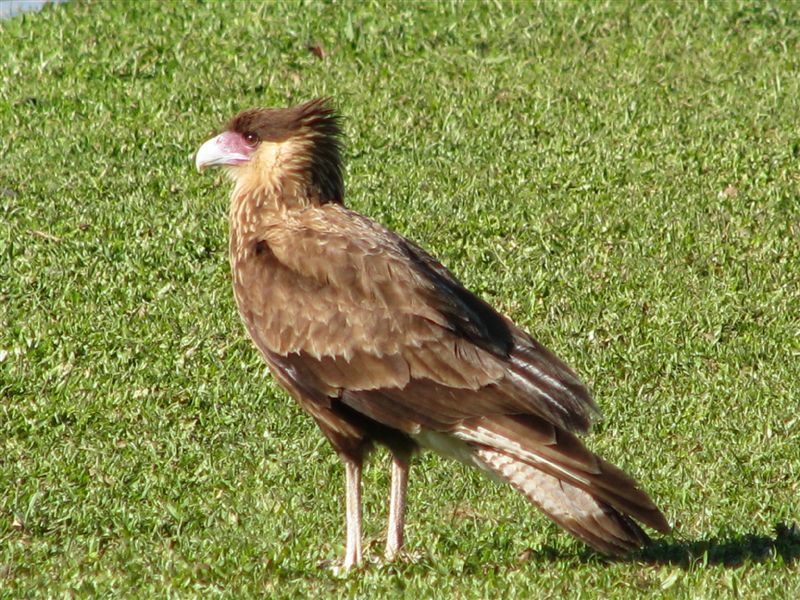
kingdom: Animalia
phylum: Chordata
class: Aves
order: Falconiformes
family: Falconidae
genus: Caracara
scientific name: Caracara plancus
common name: Southern caracara
